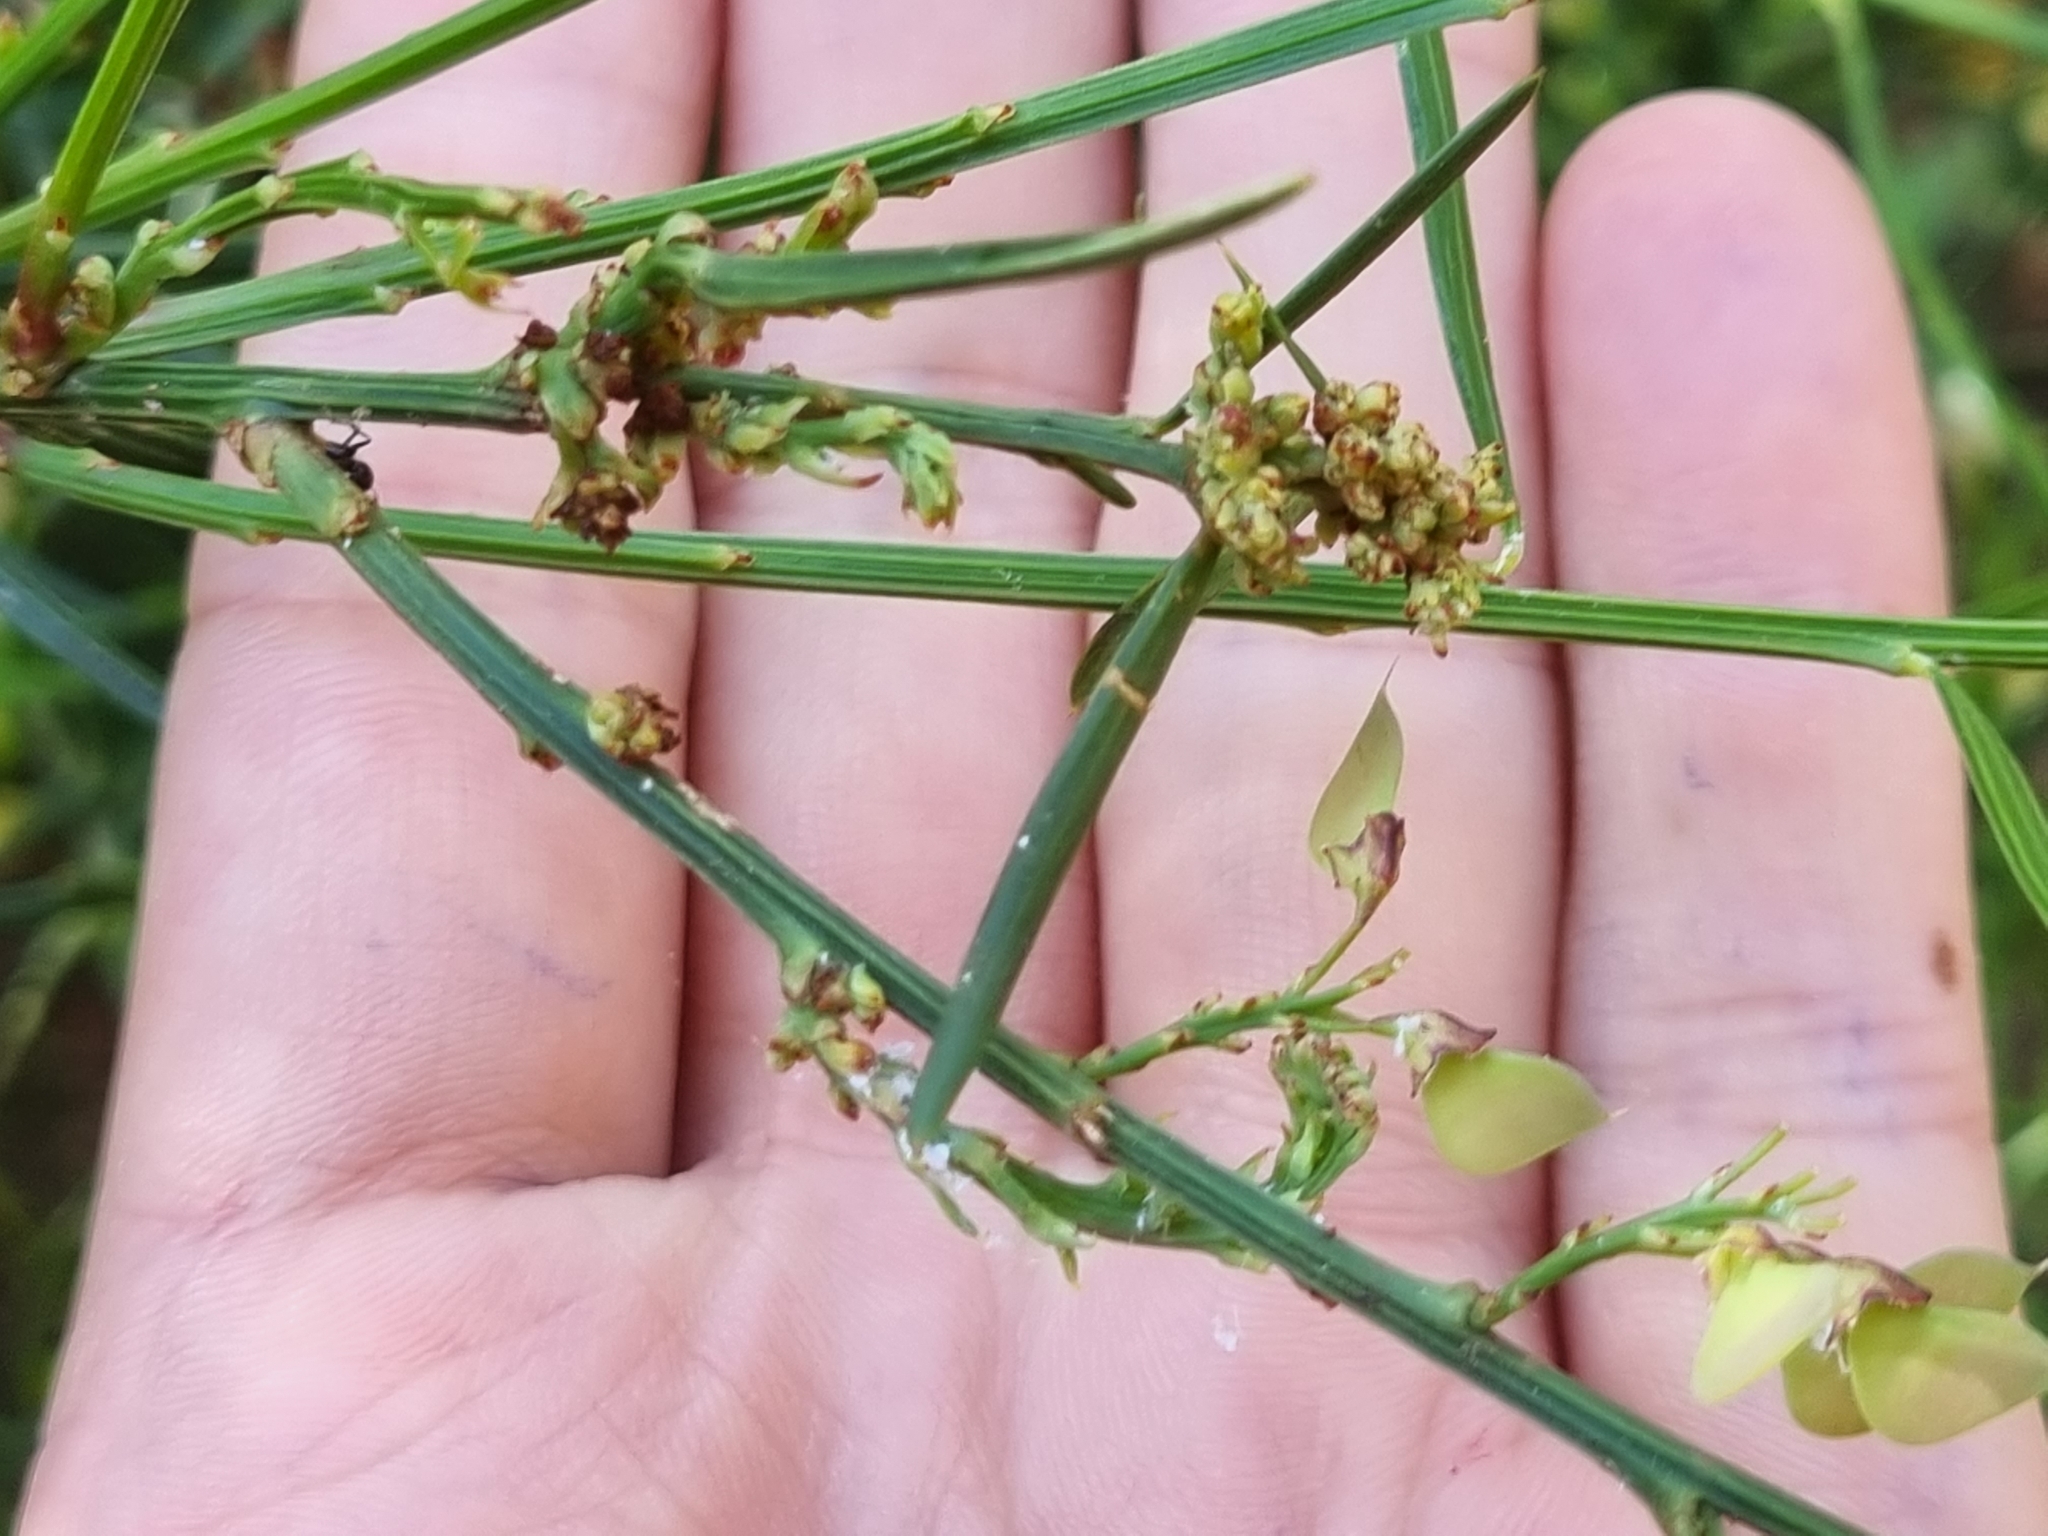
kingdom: Plantae
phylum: Tracheophyta
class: Magnoliopsida
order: Fabales
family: Fabaceae
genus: Daviesia
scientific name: Daviesia leptophylla
